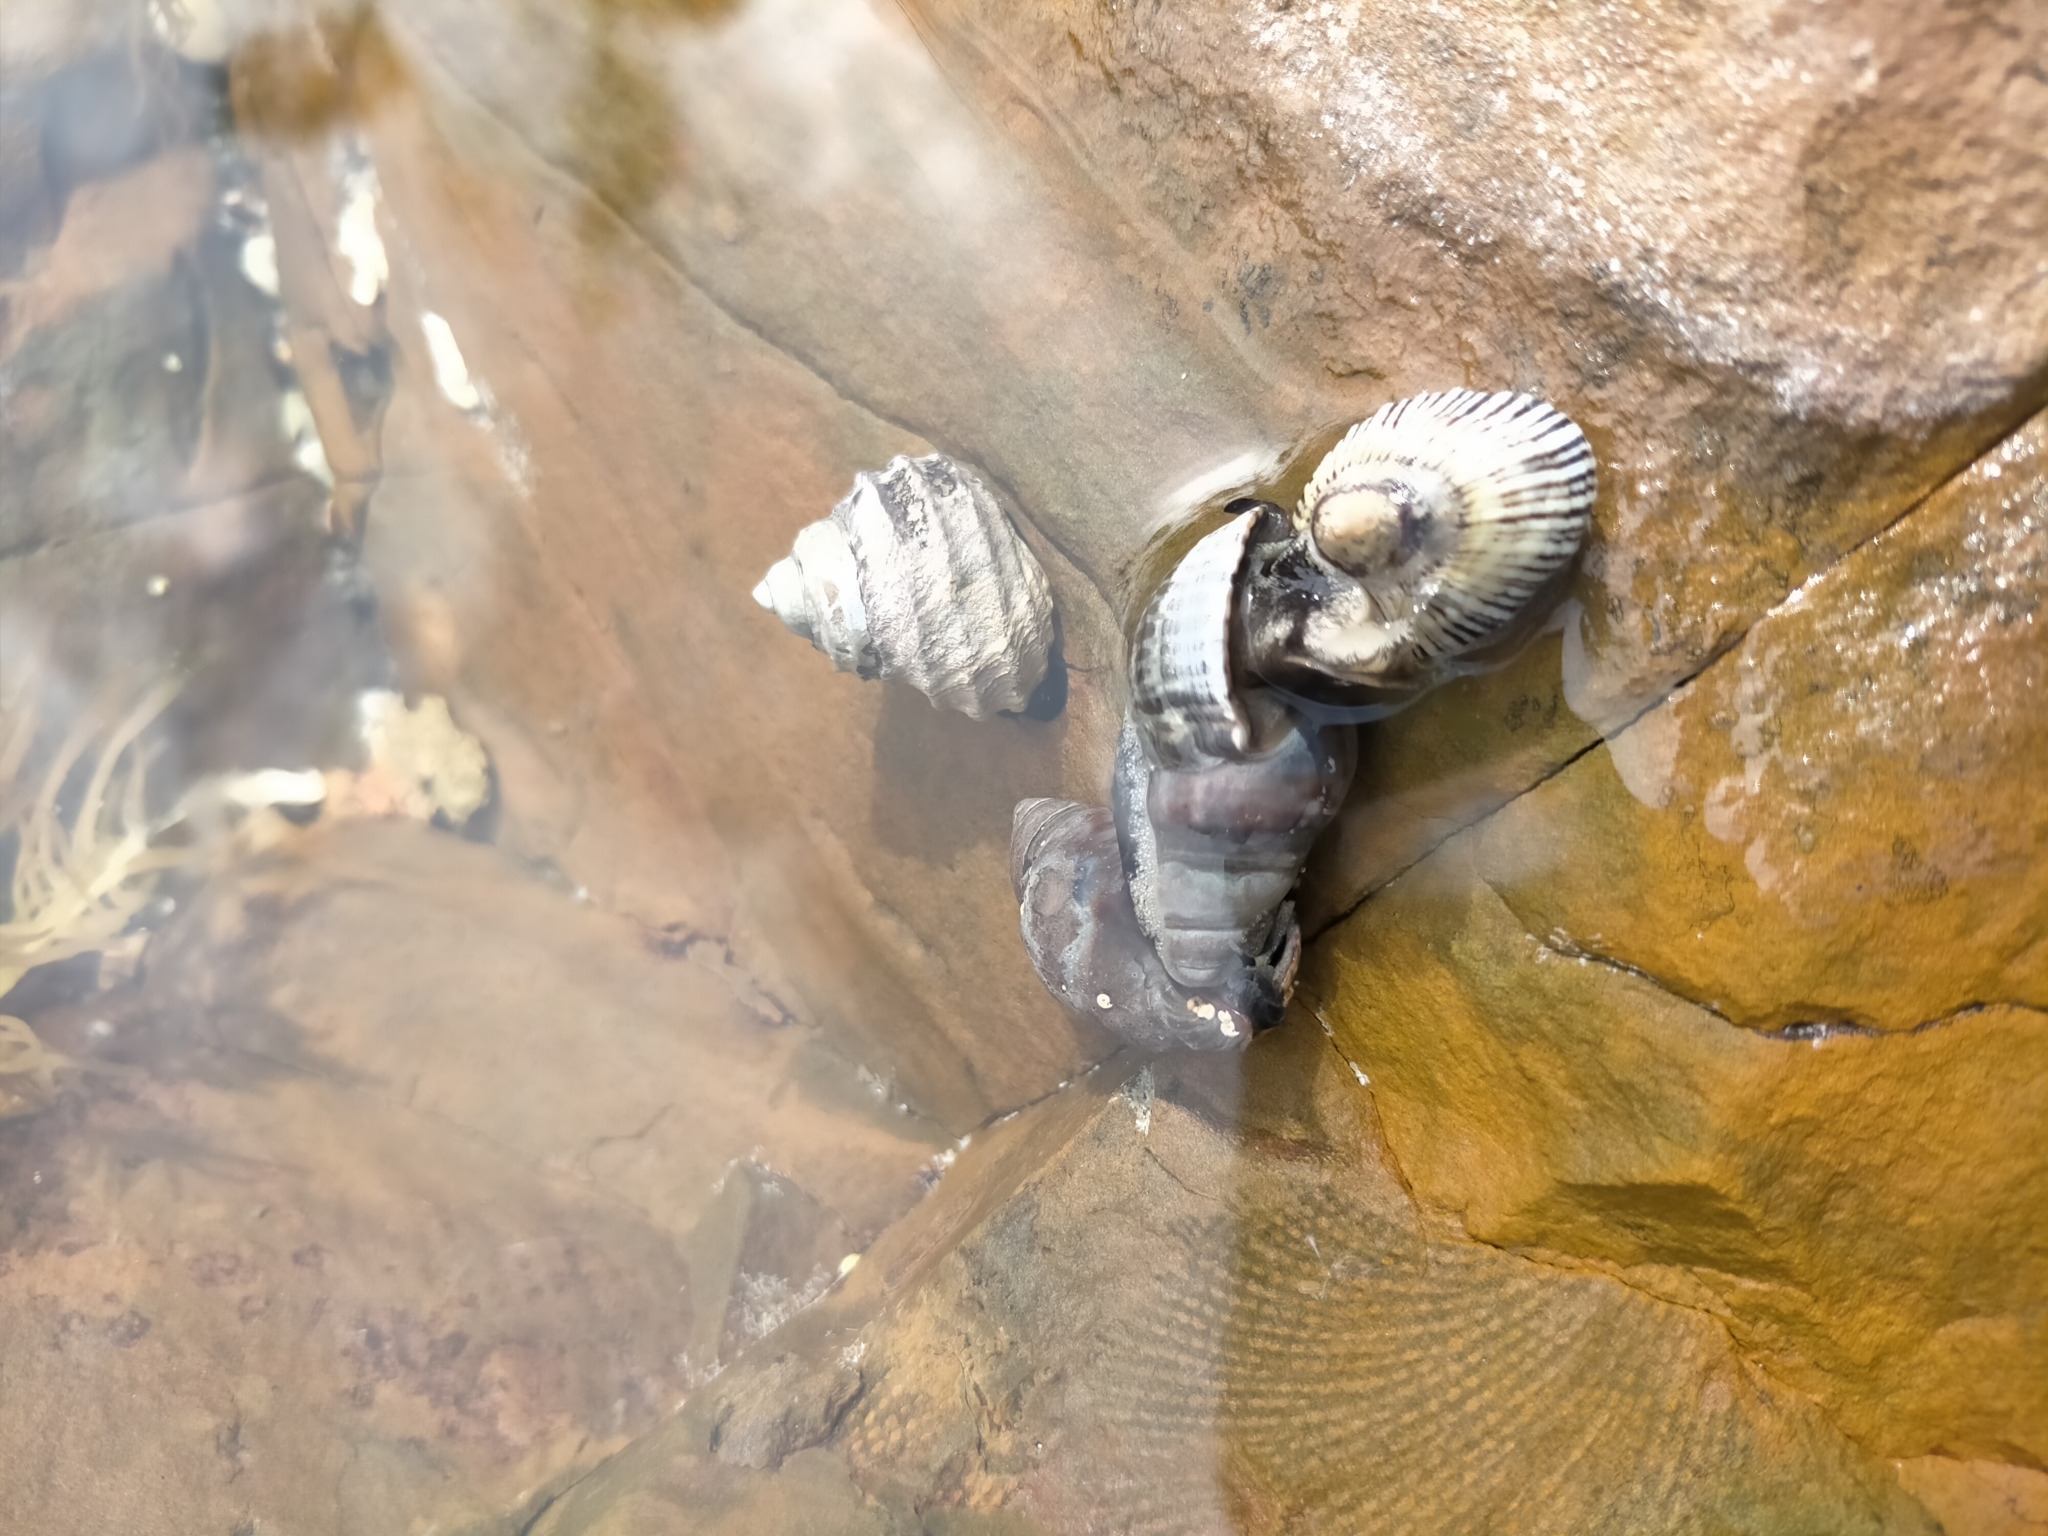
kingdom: Animalia
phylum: Mollusca
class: Gastropoda
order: Neogastropoda
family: Cominellidae
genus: Cominella
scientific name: Cominella lineolata
